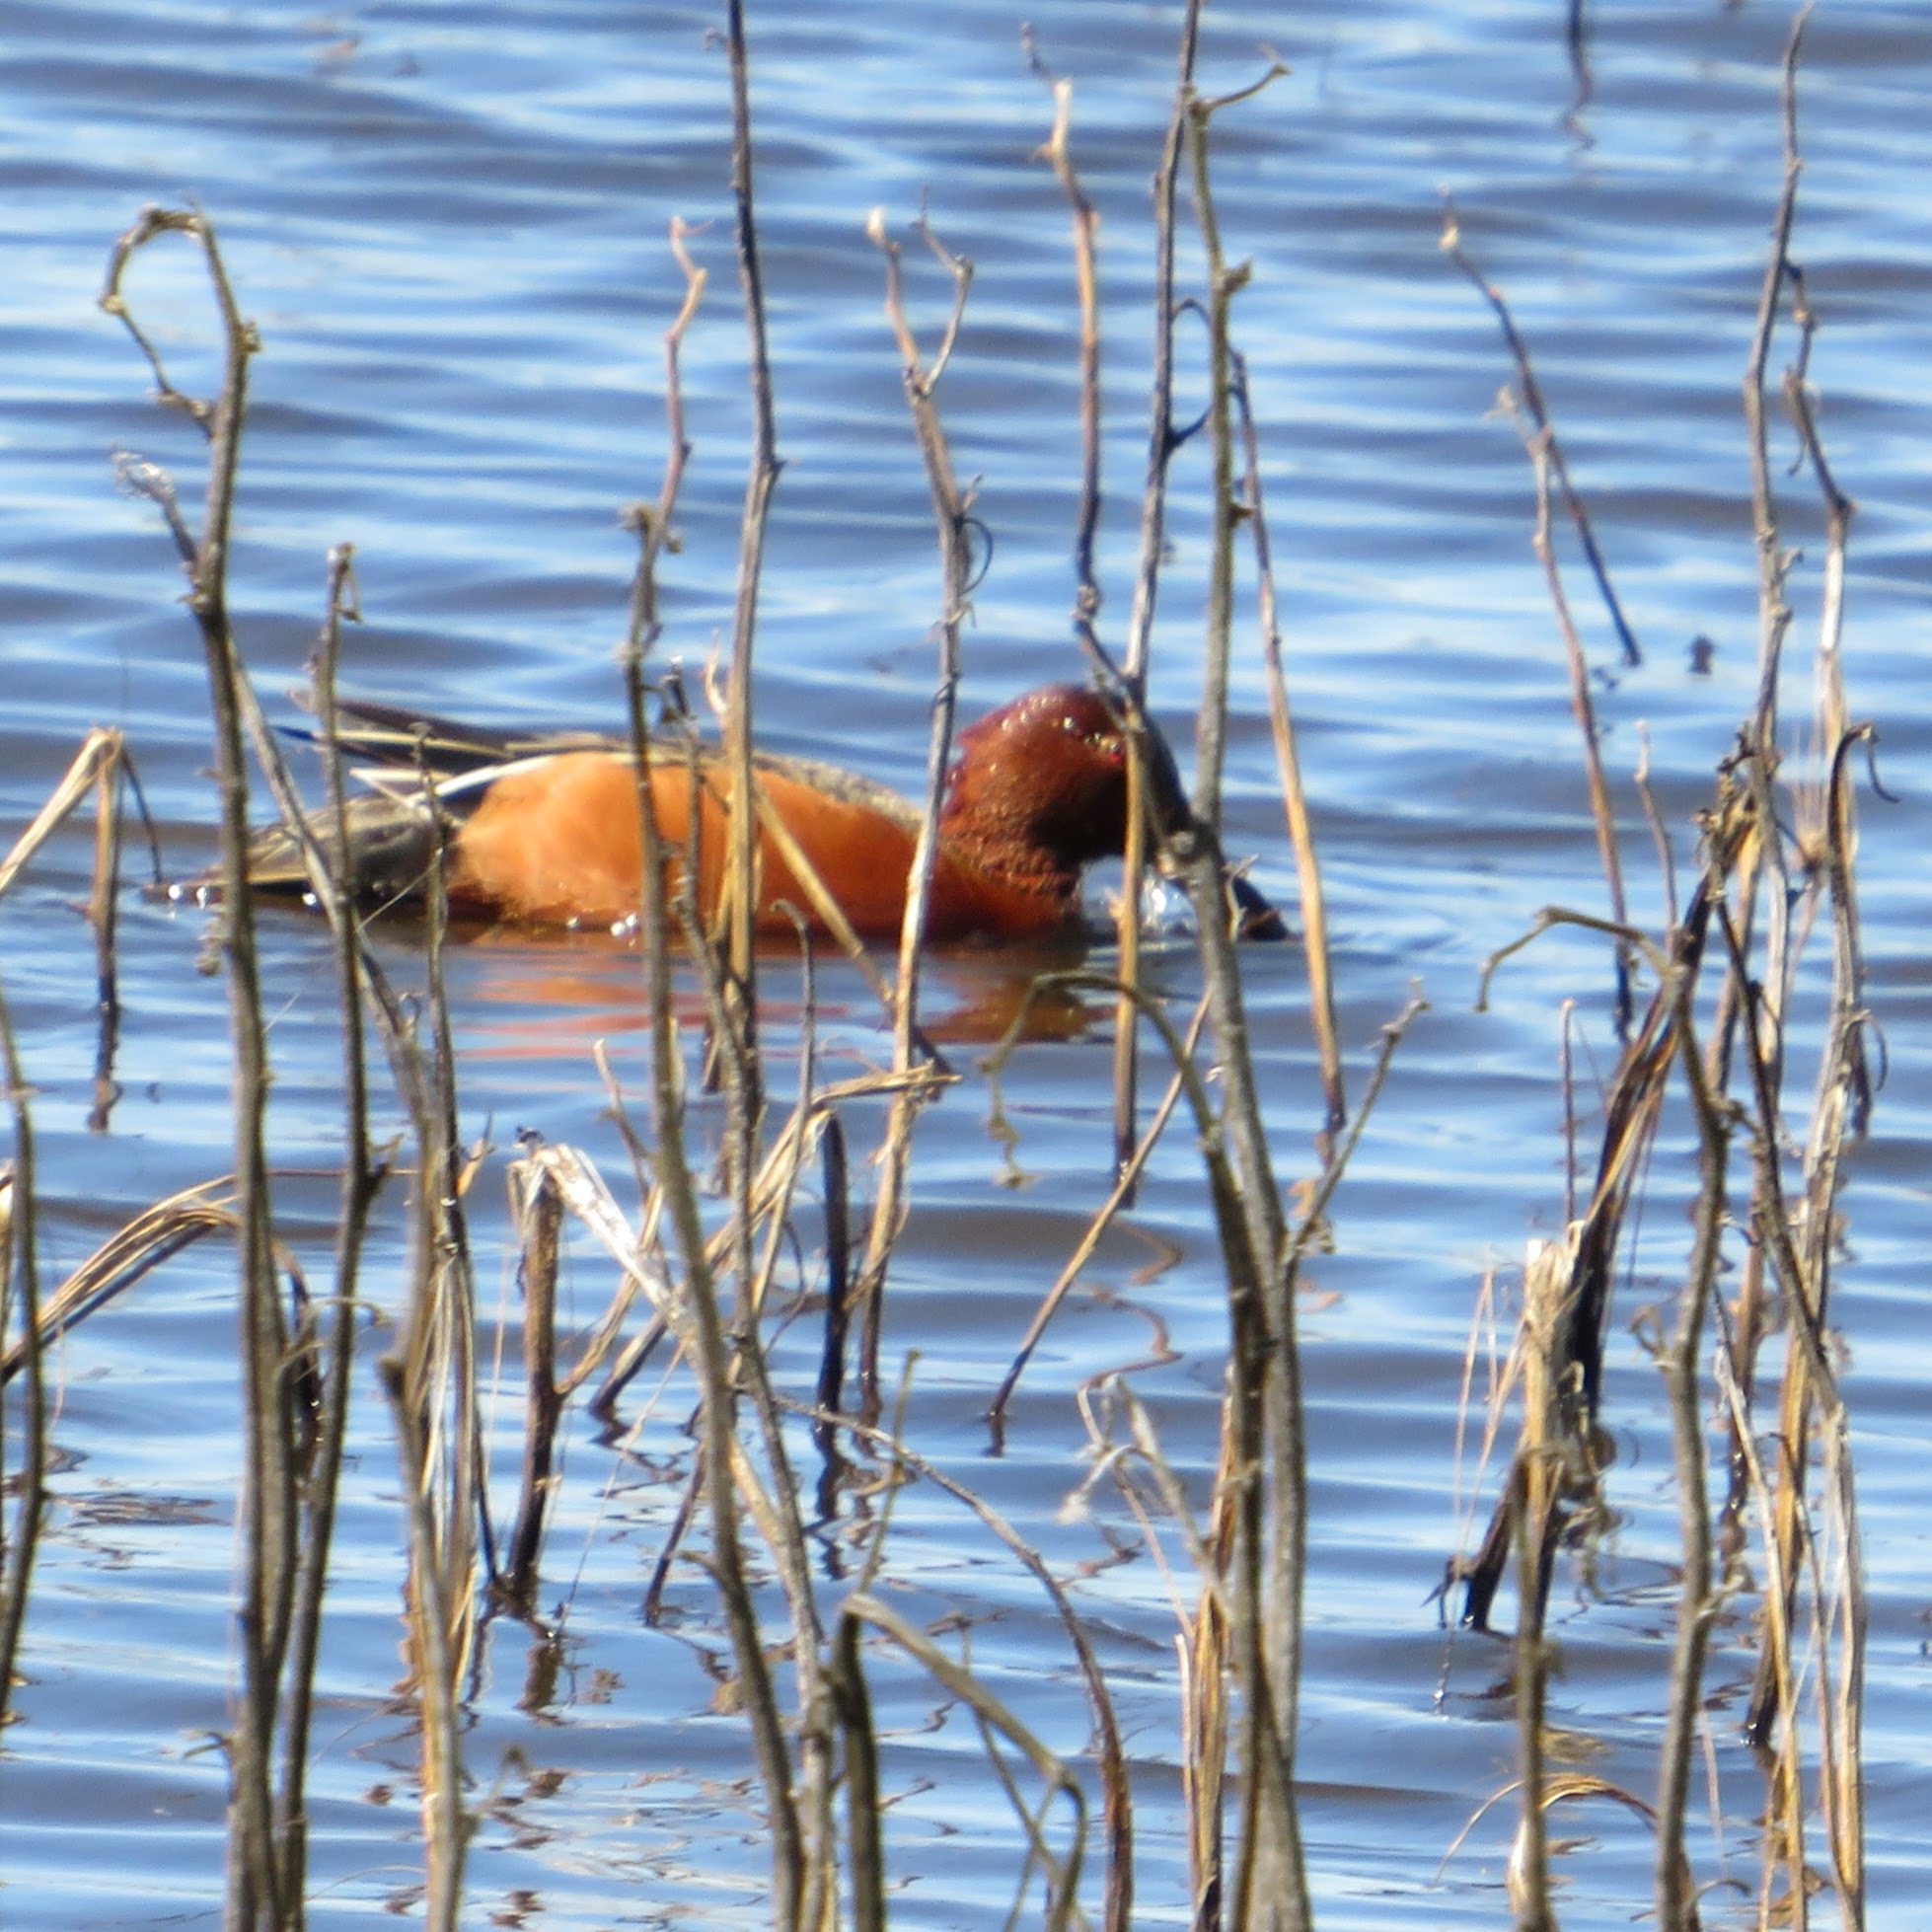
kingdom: Animalia
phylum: Chordata
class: Aves
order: Anseriformes
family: Anatidae
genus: Spatula
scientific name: Spatula cyanoptera
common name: Cinnamon teal
